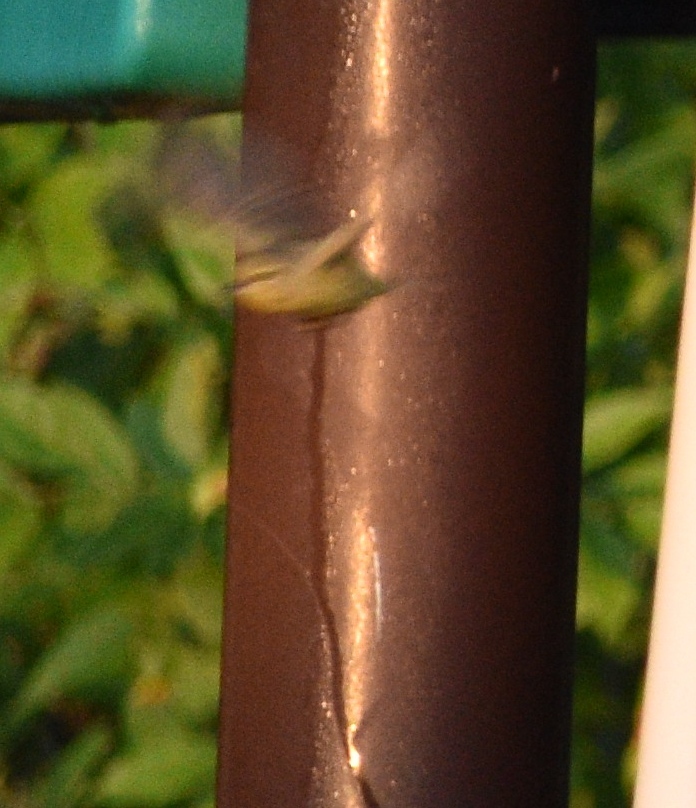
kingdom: Animalia
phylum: Chordata
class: Aves
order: Passeriformes
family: Parulidae
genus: Leiothlypis
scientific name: Leiothlypis celata
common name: Orange-crowned warbler
